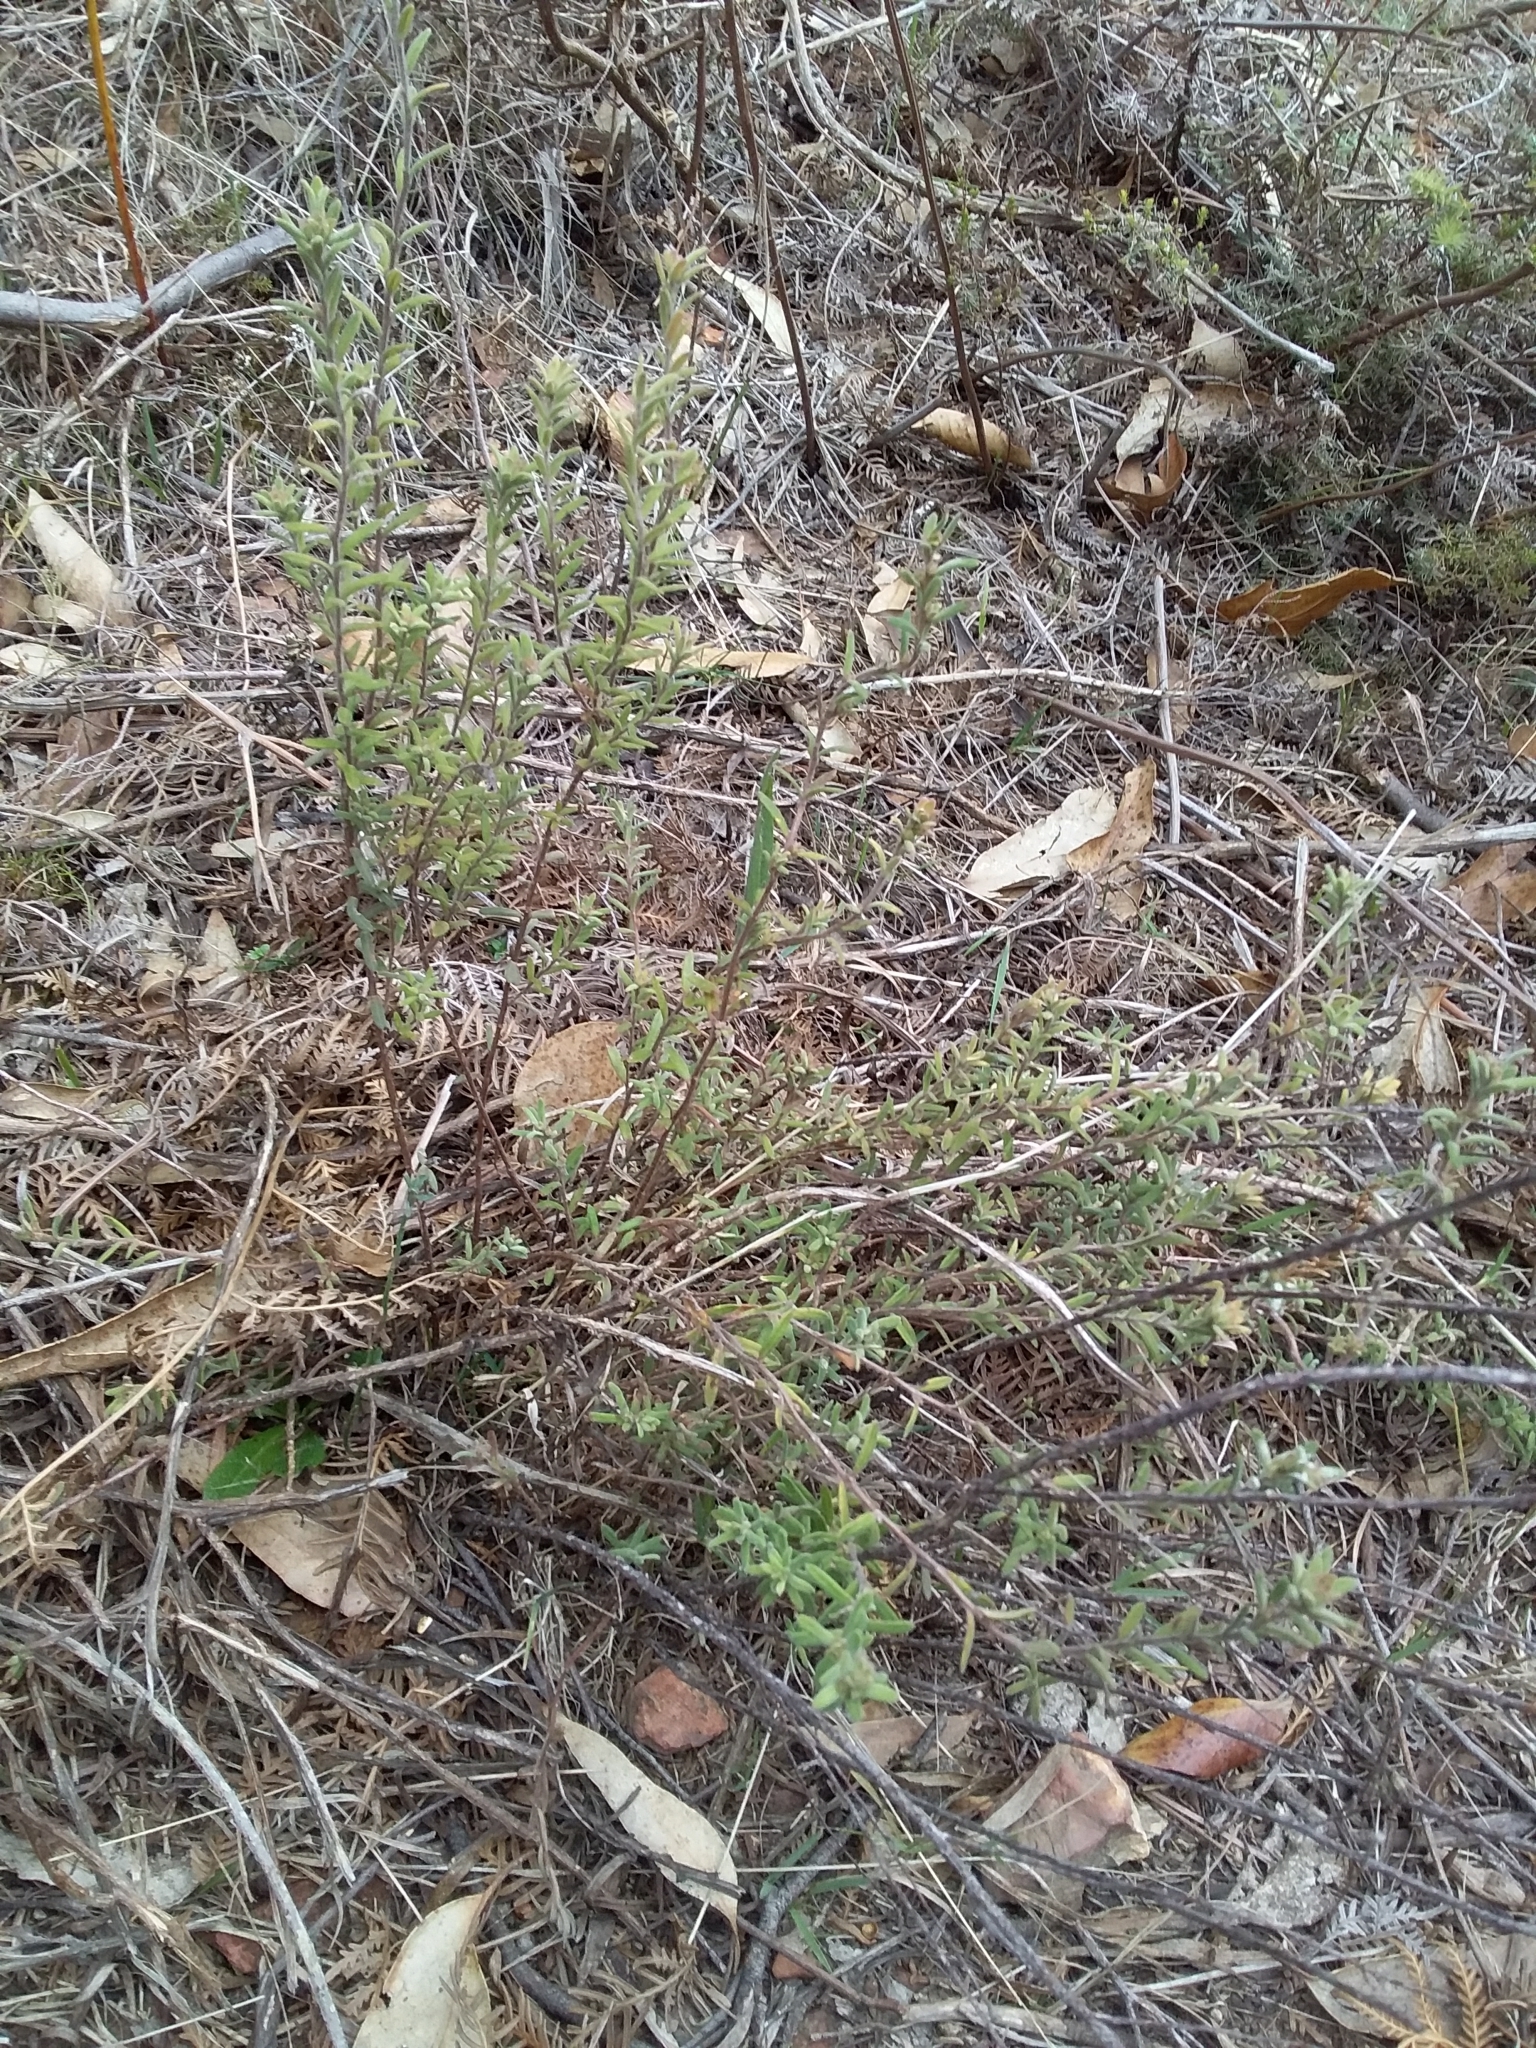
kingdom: Plantae
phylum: Tracheophyta
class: Magnoliopsida
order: Dilleniales
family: Dilleniaceae
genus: Hibbertia
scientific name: Hibbertia crinita
